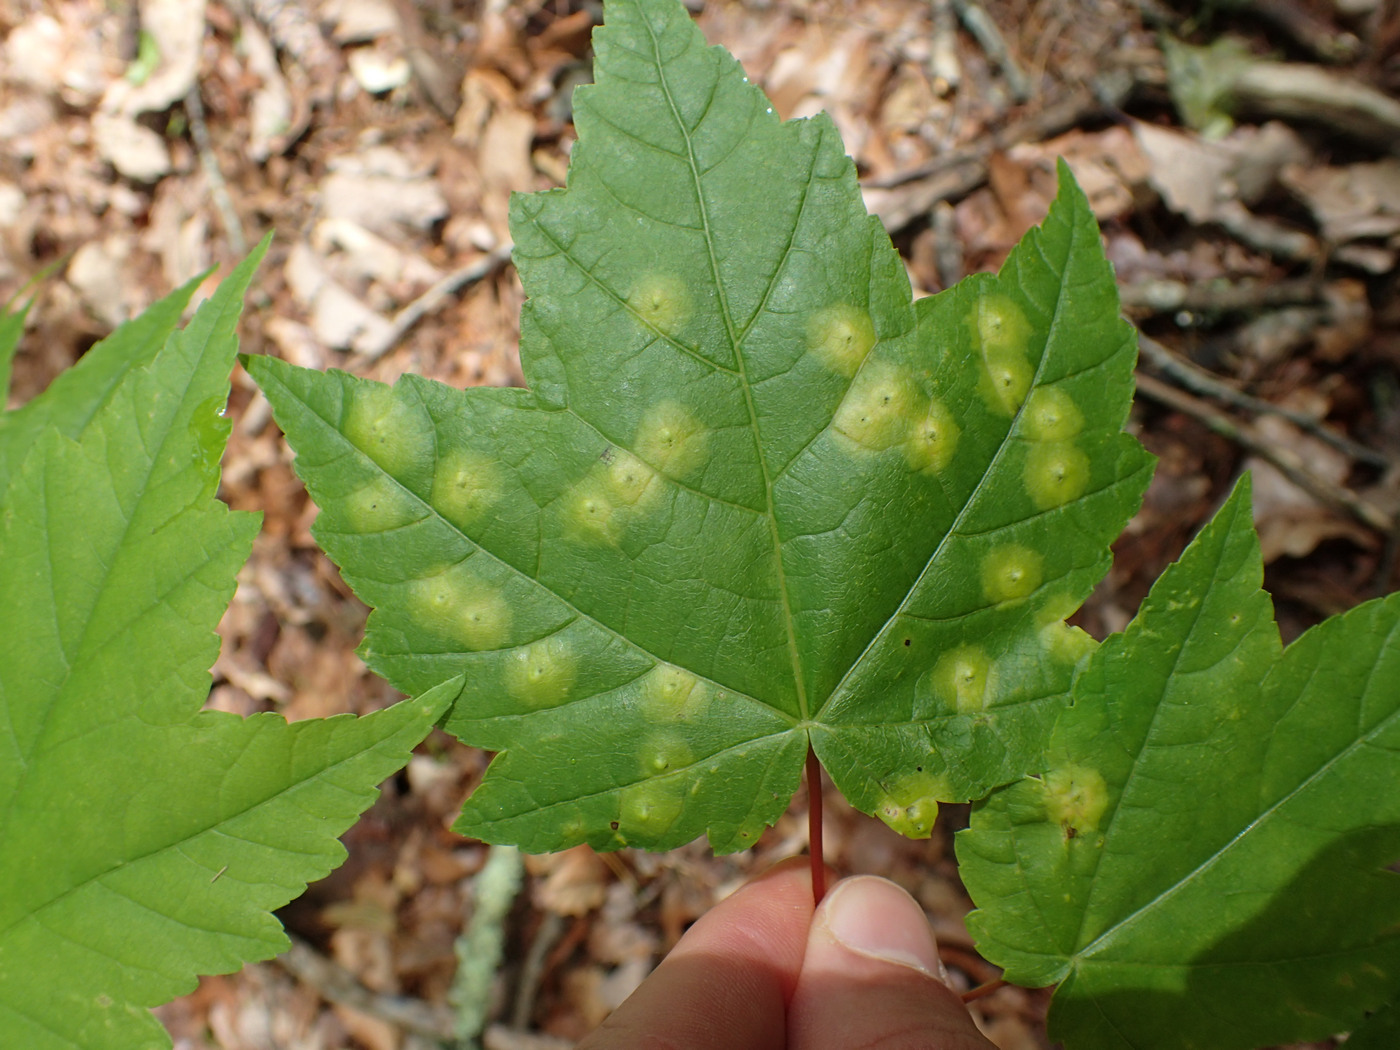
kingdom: Animalia
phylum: Arthropoda
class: Insecta
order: Diptera
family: Cecidomyiidae
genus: Acericecis
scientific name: Acericecis ocellaris
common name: Ocellate gall midge
